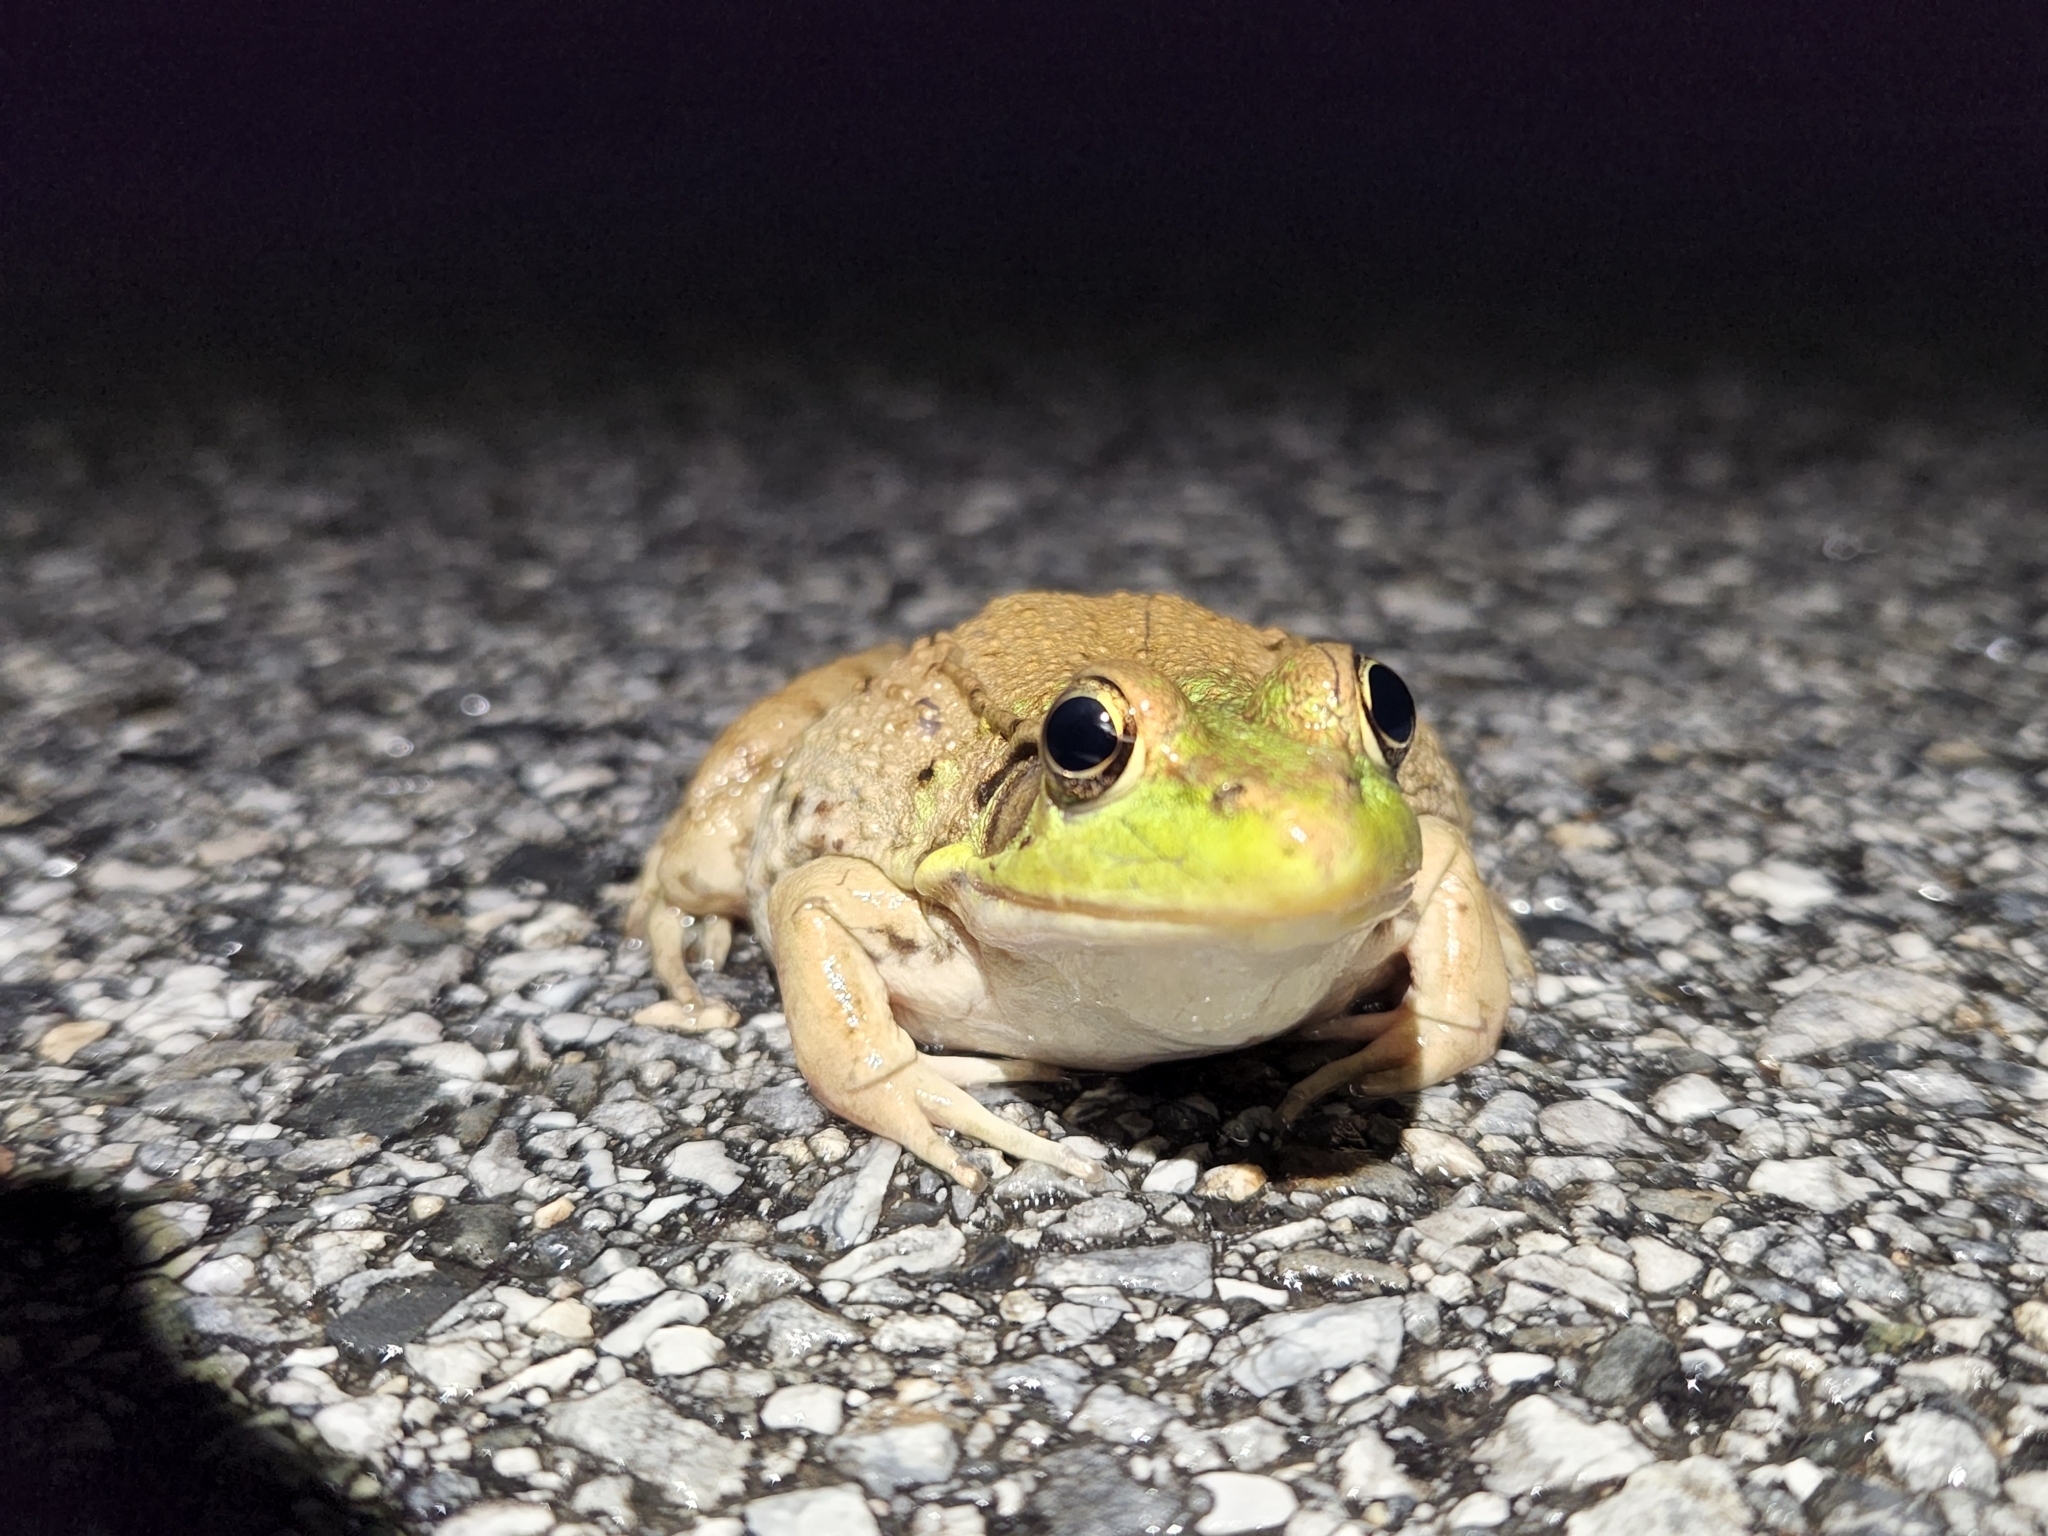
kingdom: Animalia
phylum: Chordata
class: Amphibia
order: Anura
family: Ranidae
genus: Lithobates
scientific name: Lithobates clamitans
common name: Green frog
